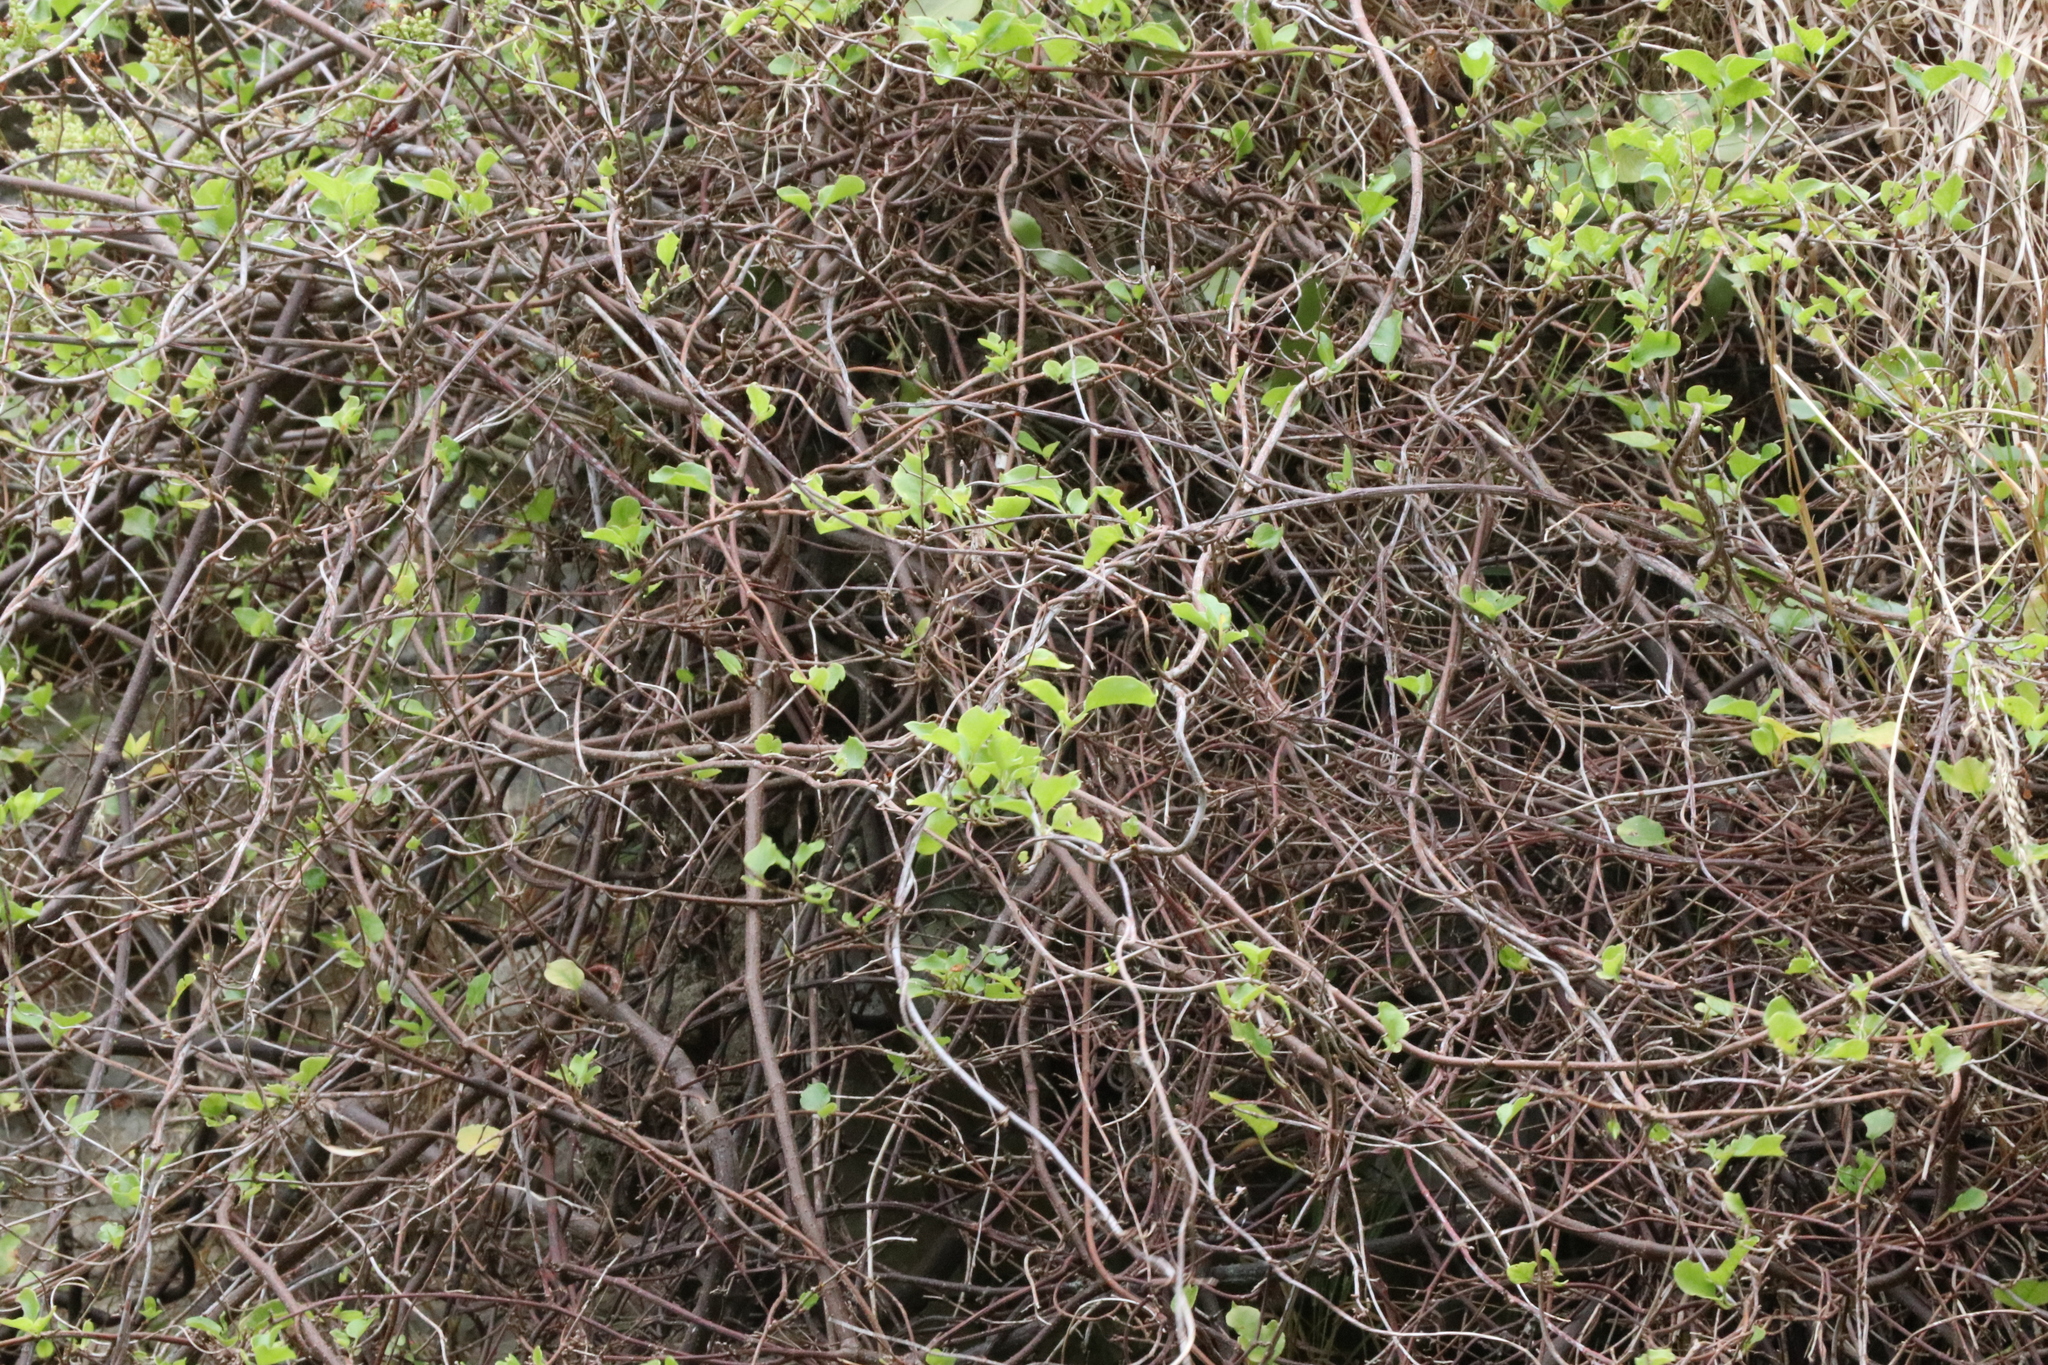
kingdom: Plantae
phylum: Tracheophyta
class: Magnoliopsida
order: Caryophyllales
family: Polygonaceae
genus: Muehlenbeckia
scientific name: Muehlenbeckia australis
